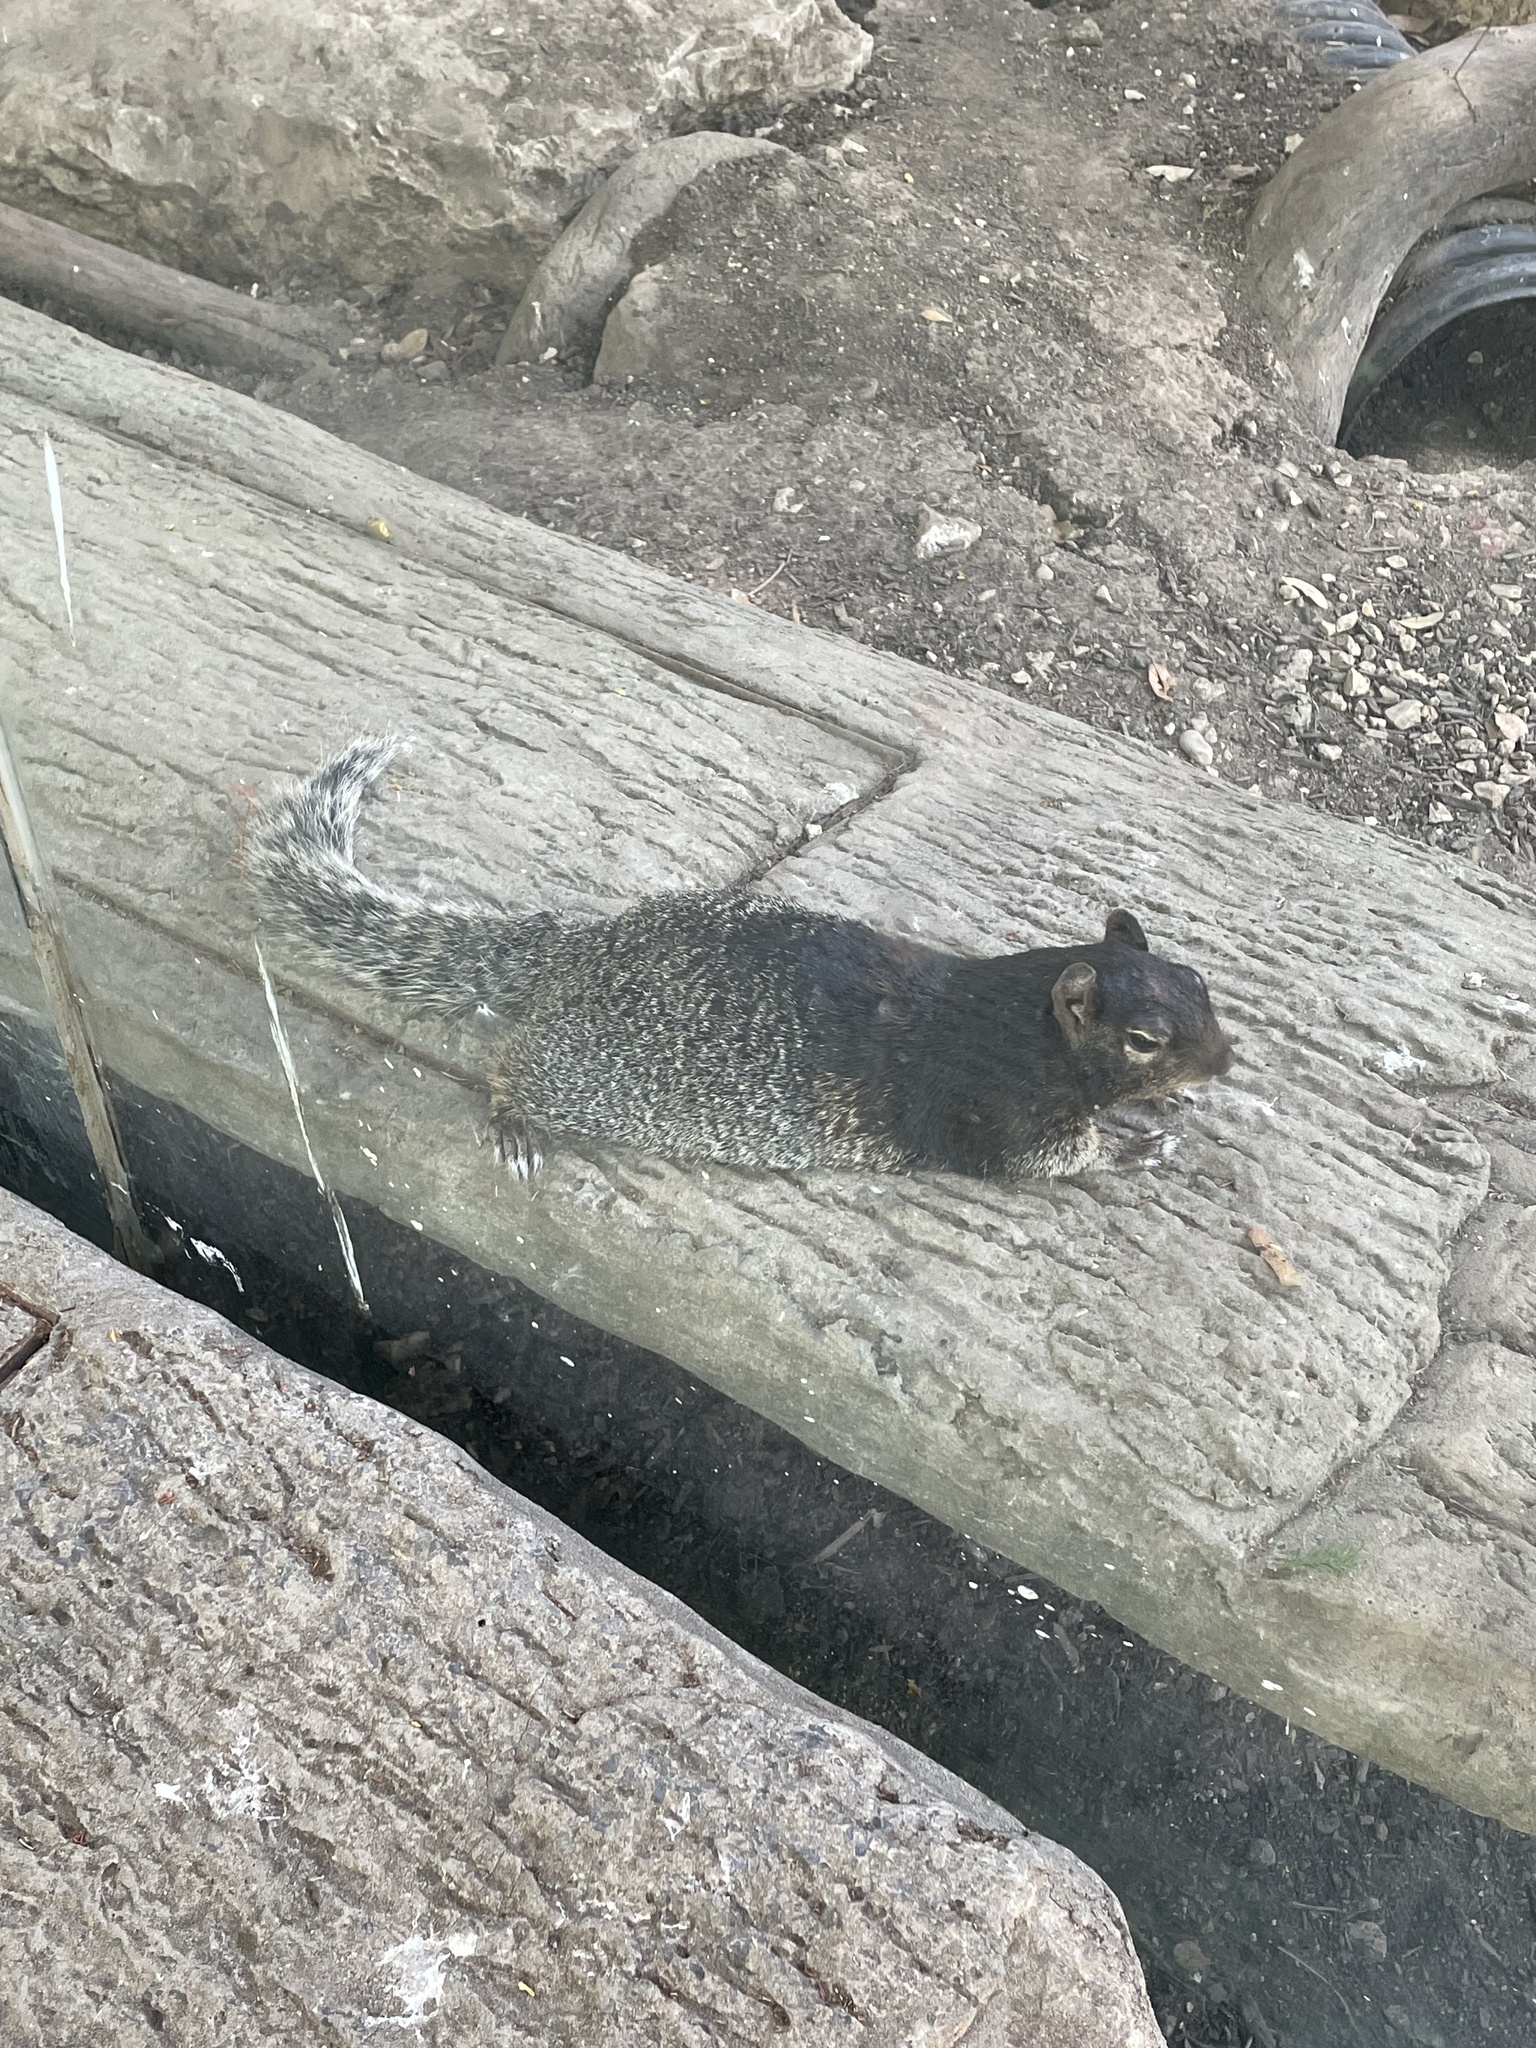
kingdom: Animalia
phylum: Chordata
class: Mammalia
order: Rodentia
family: Sciuridae
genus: Otospermophilus
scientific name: Otospermophilus variegatus
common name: Rock squirrel
